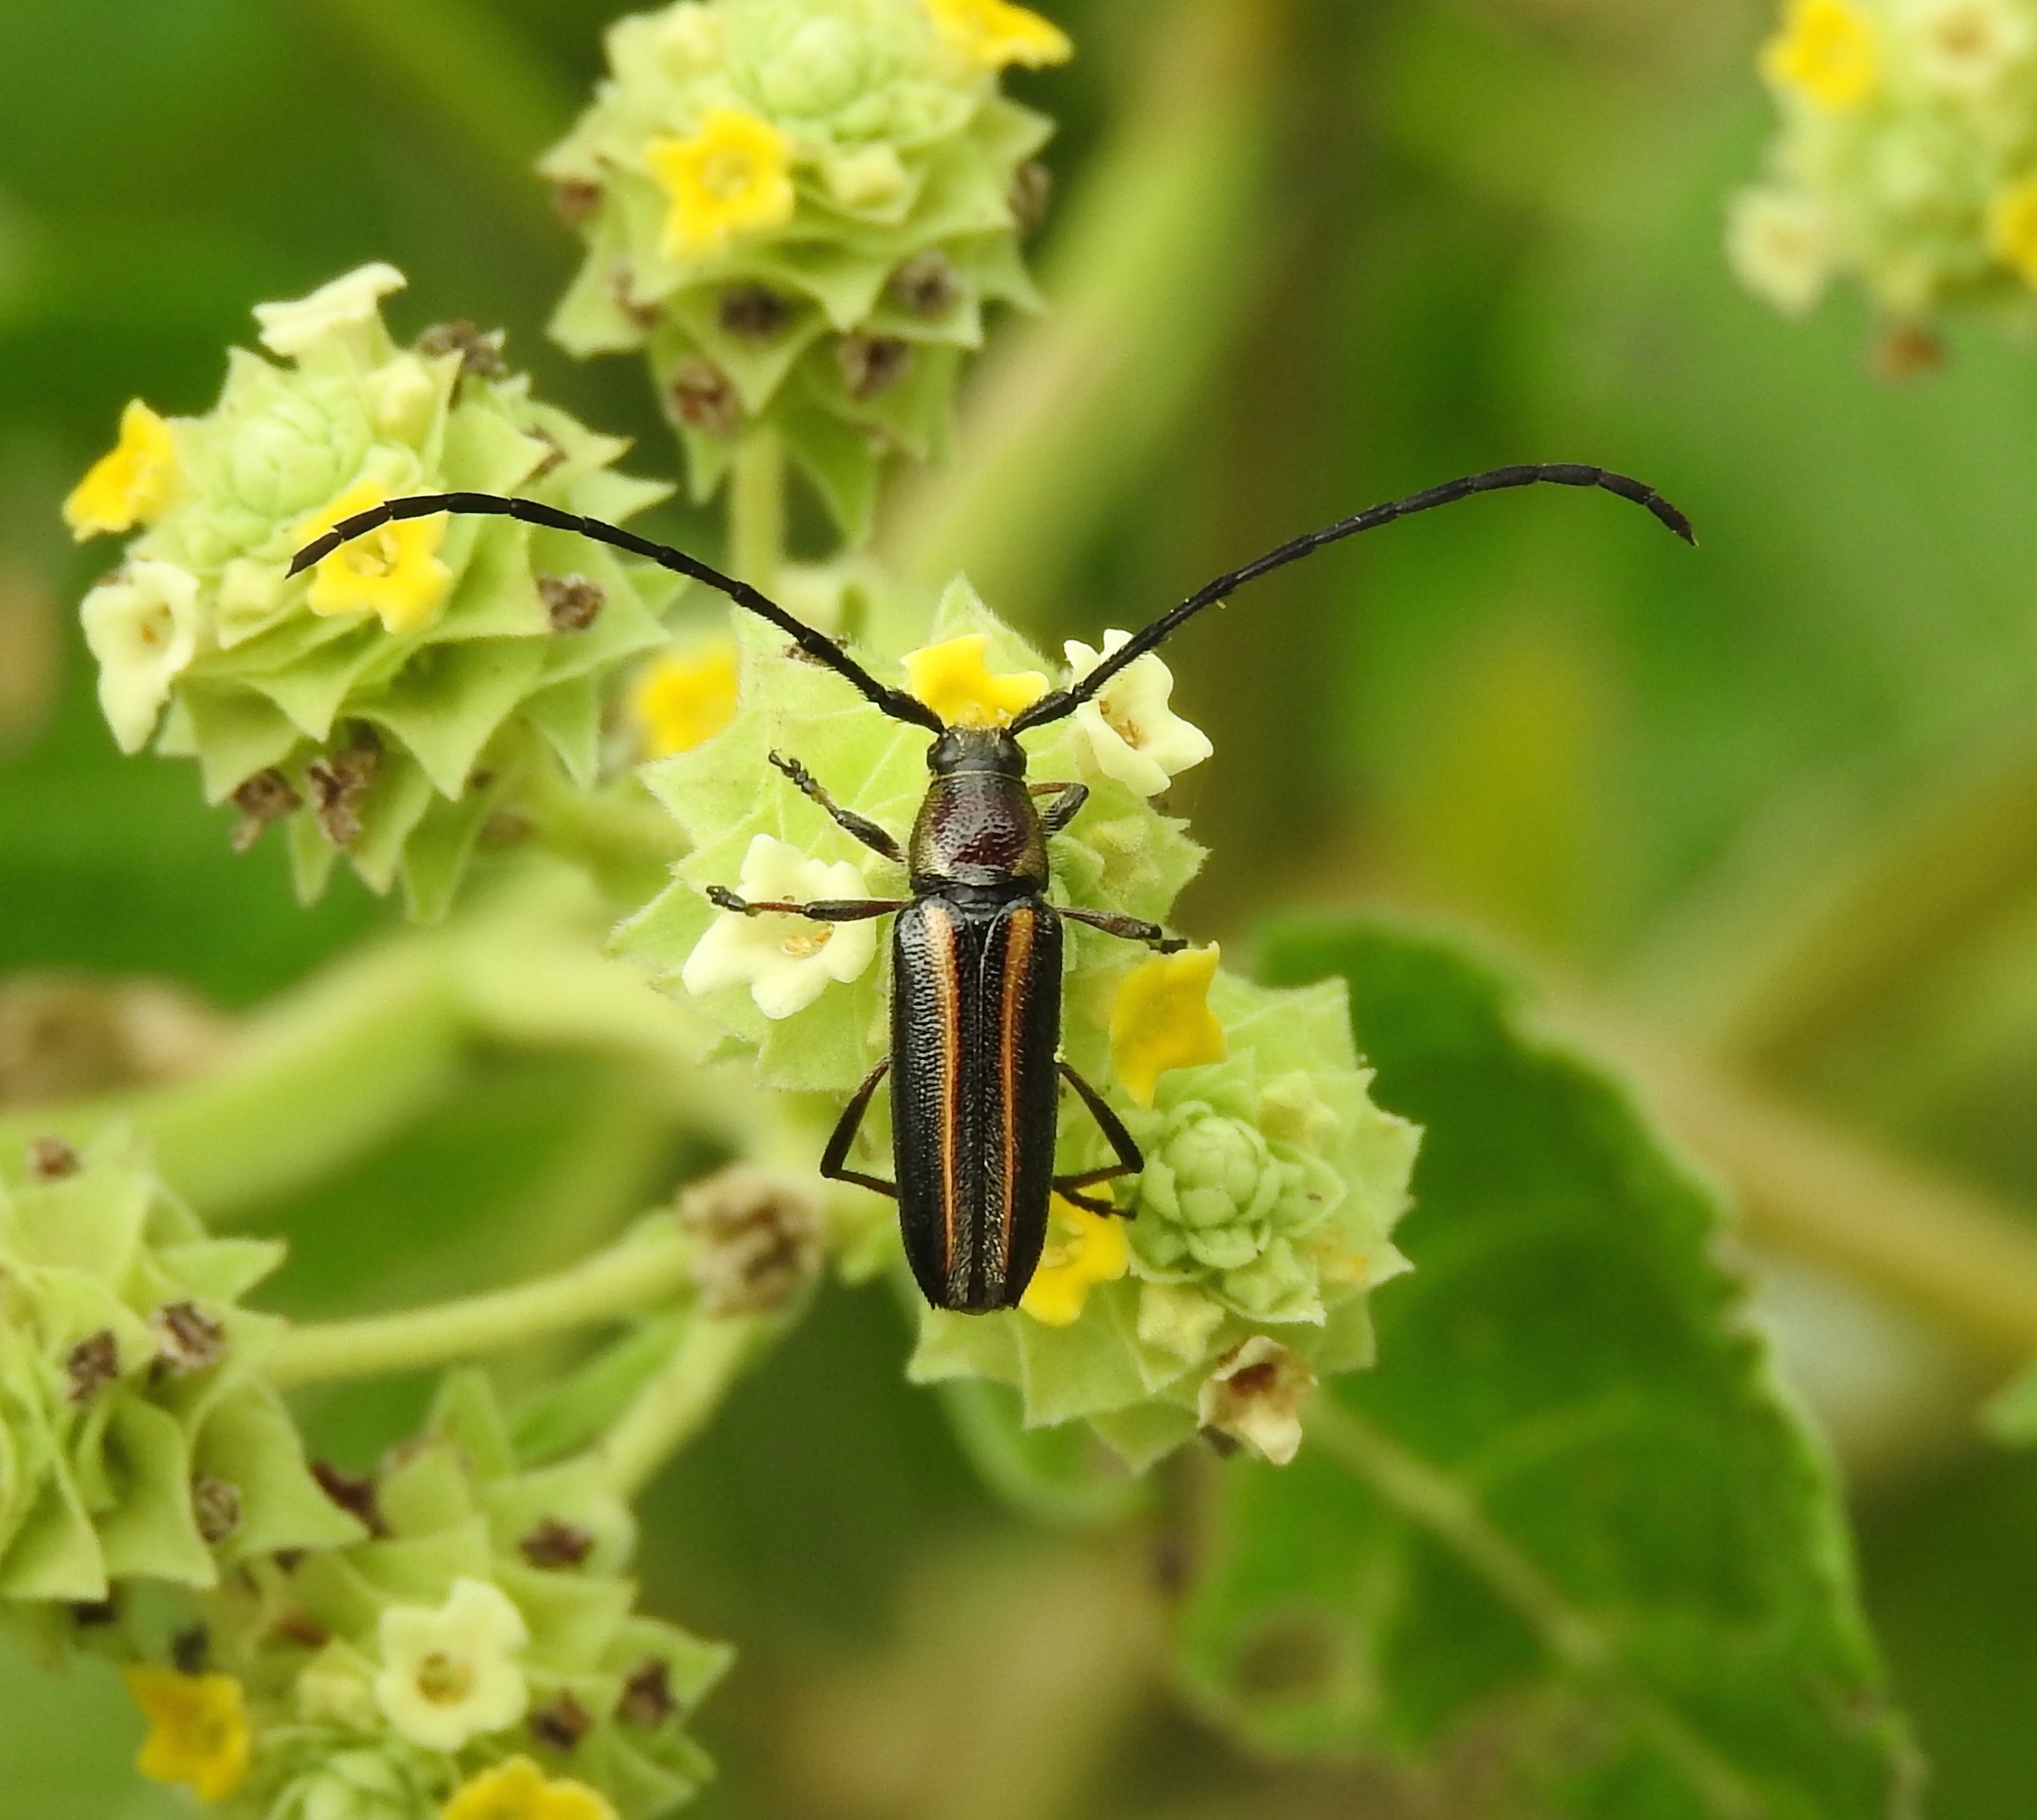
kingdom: Animalia
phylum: Arthropoda
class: Insecta
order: Coleoptera
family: Cerambycidae
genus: Sphaenothecus
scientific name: Sphaenothecus bilineatus
